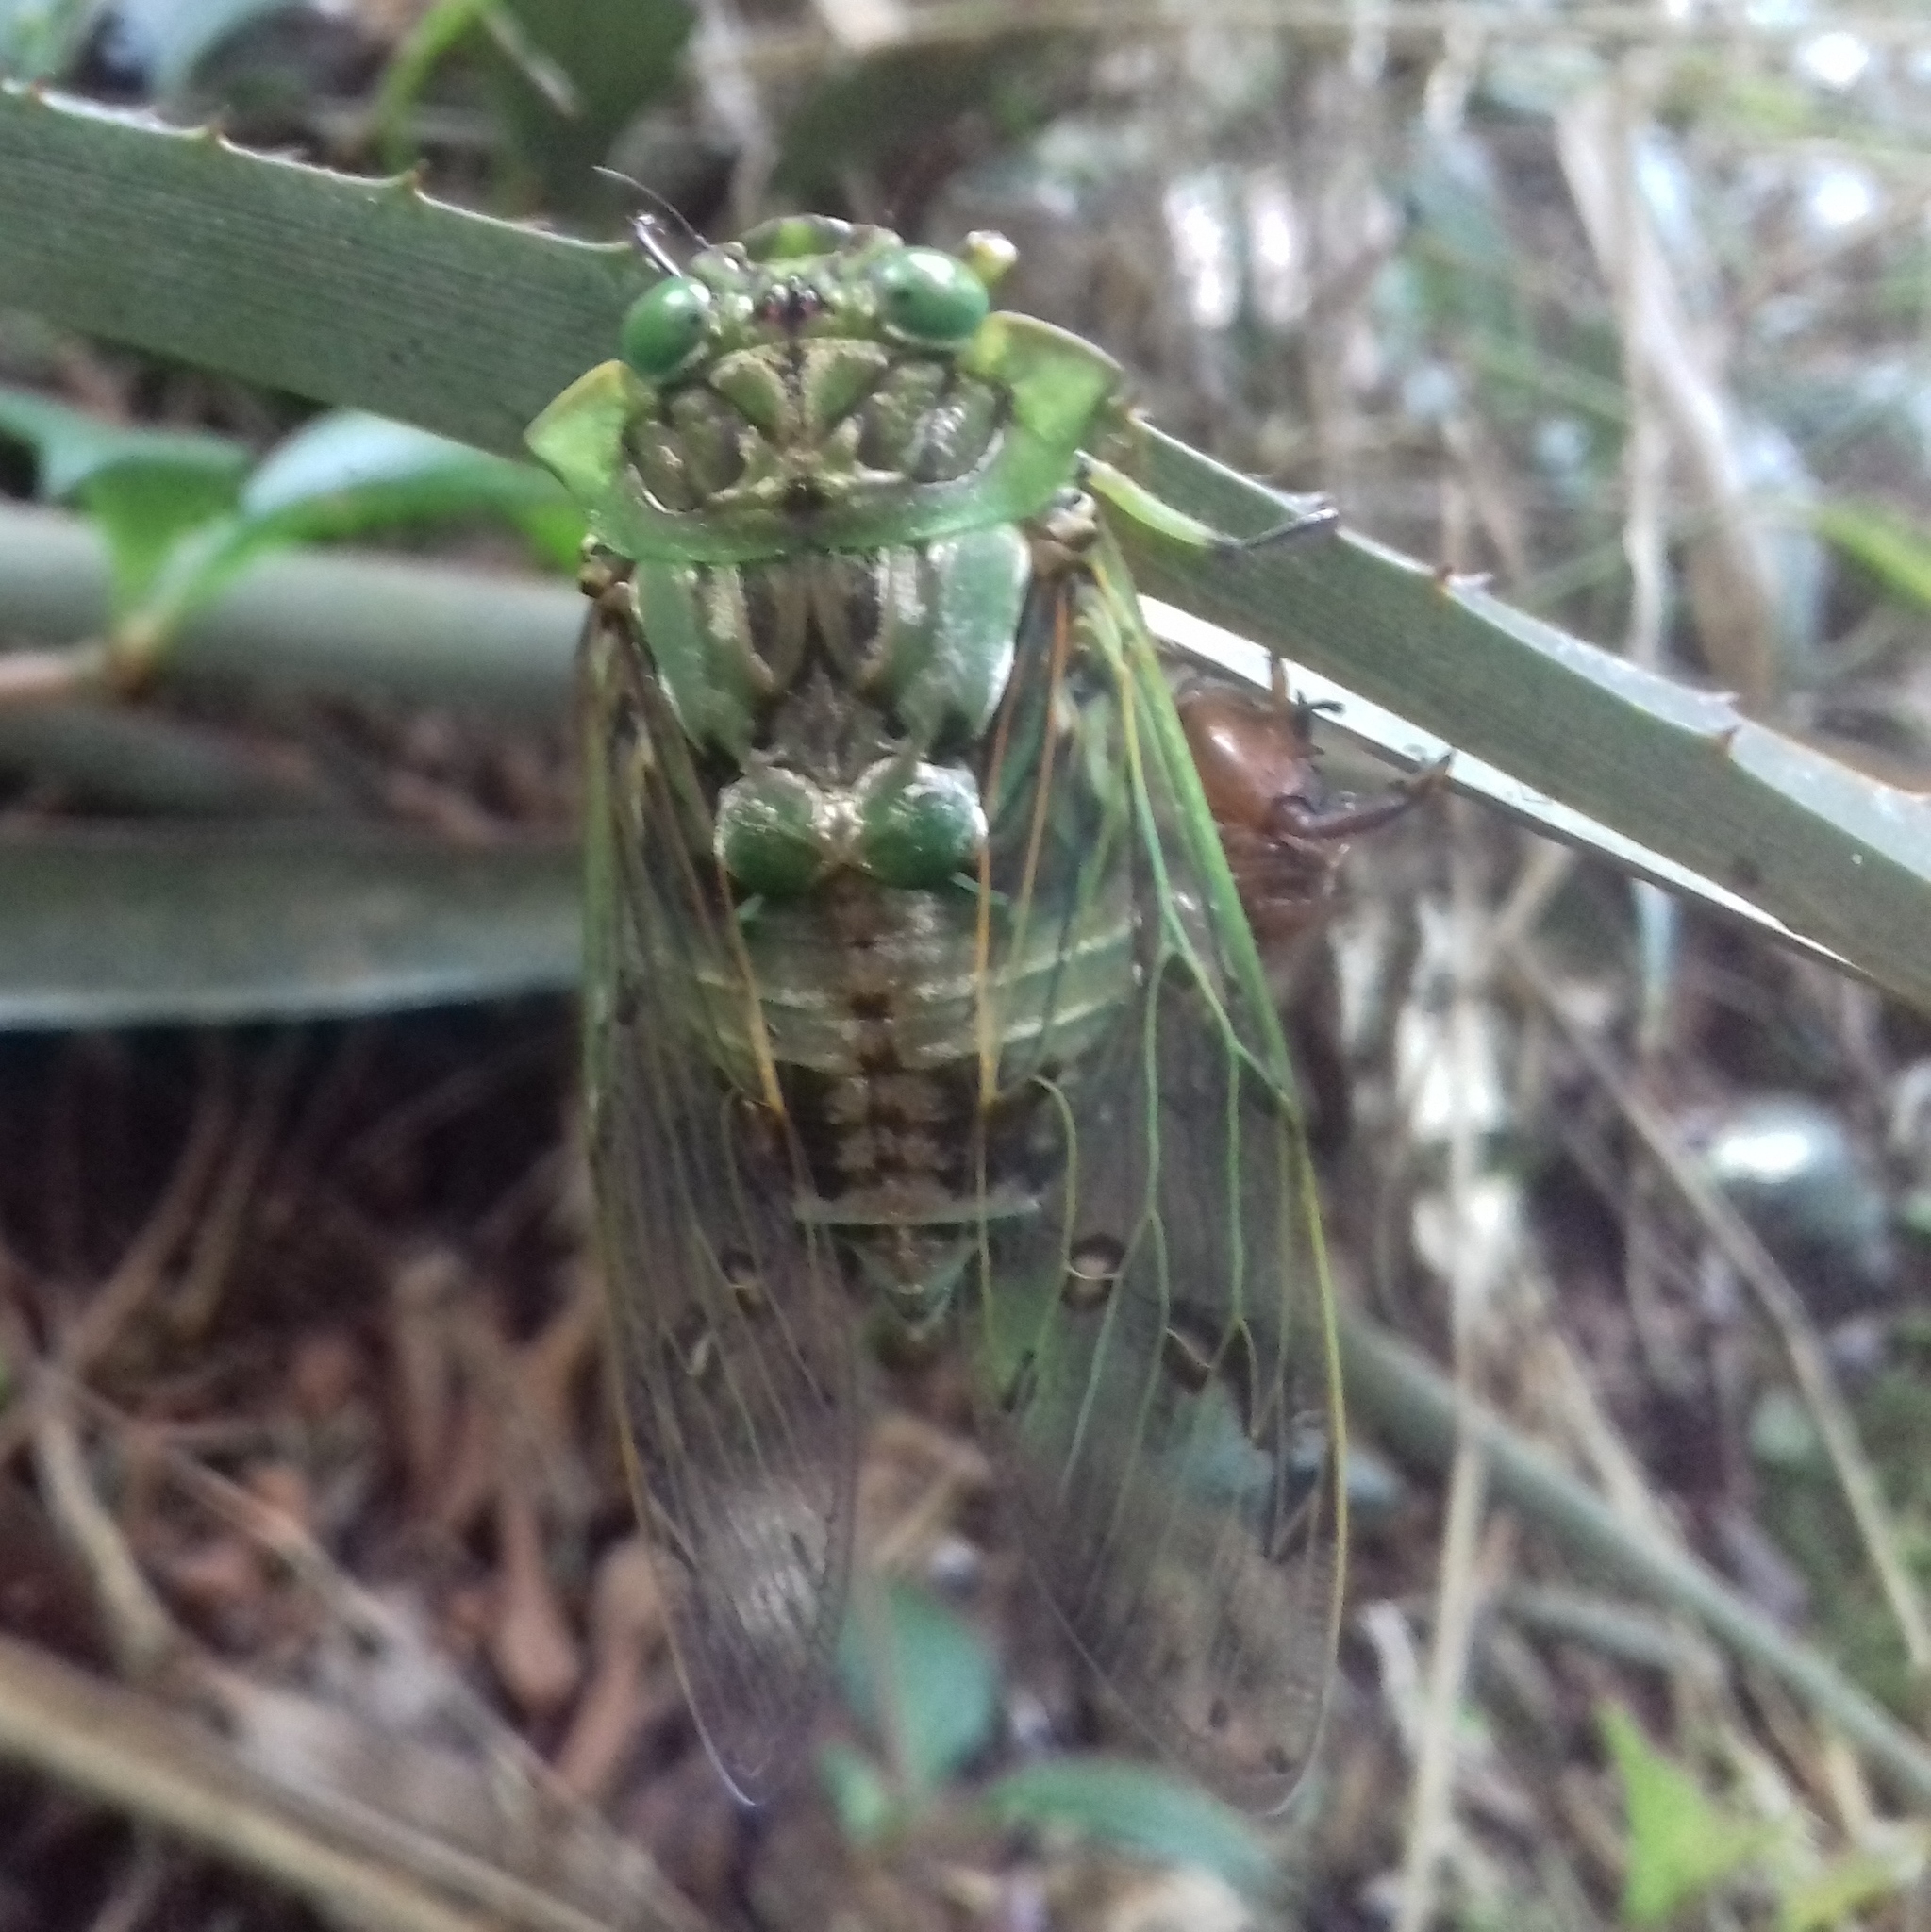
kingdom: Animalia
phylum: Arthropoda
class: Insecta
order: Hemiptera
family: Cicadidae
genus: Zammara
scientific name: Zammara tympanum
